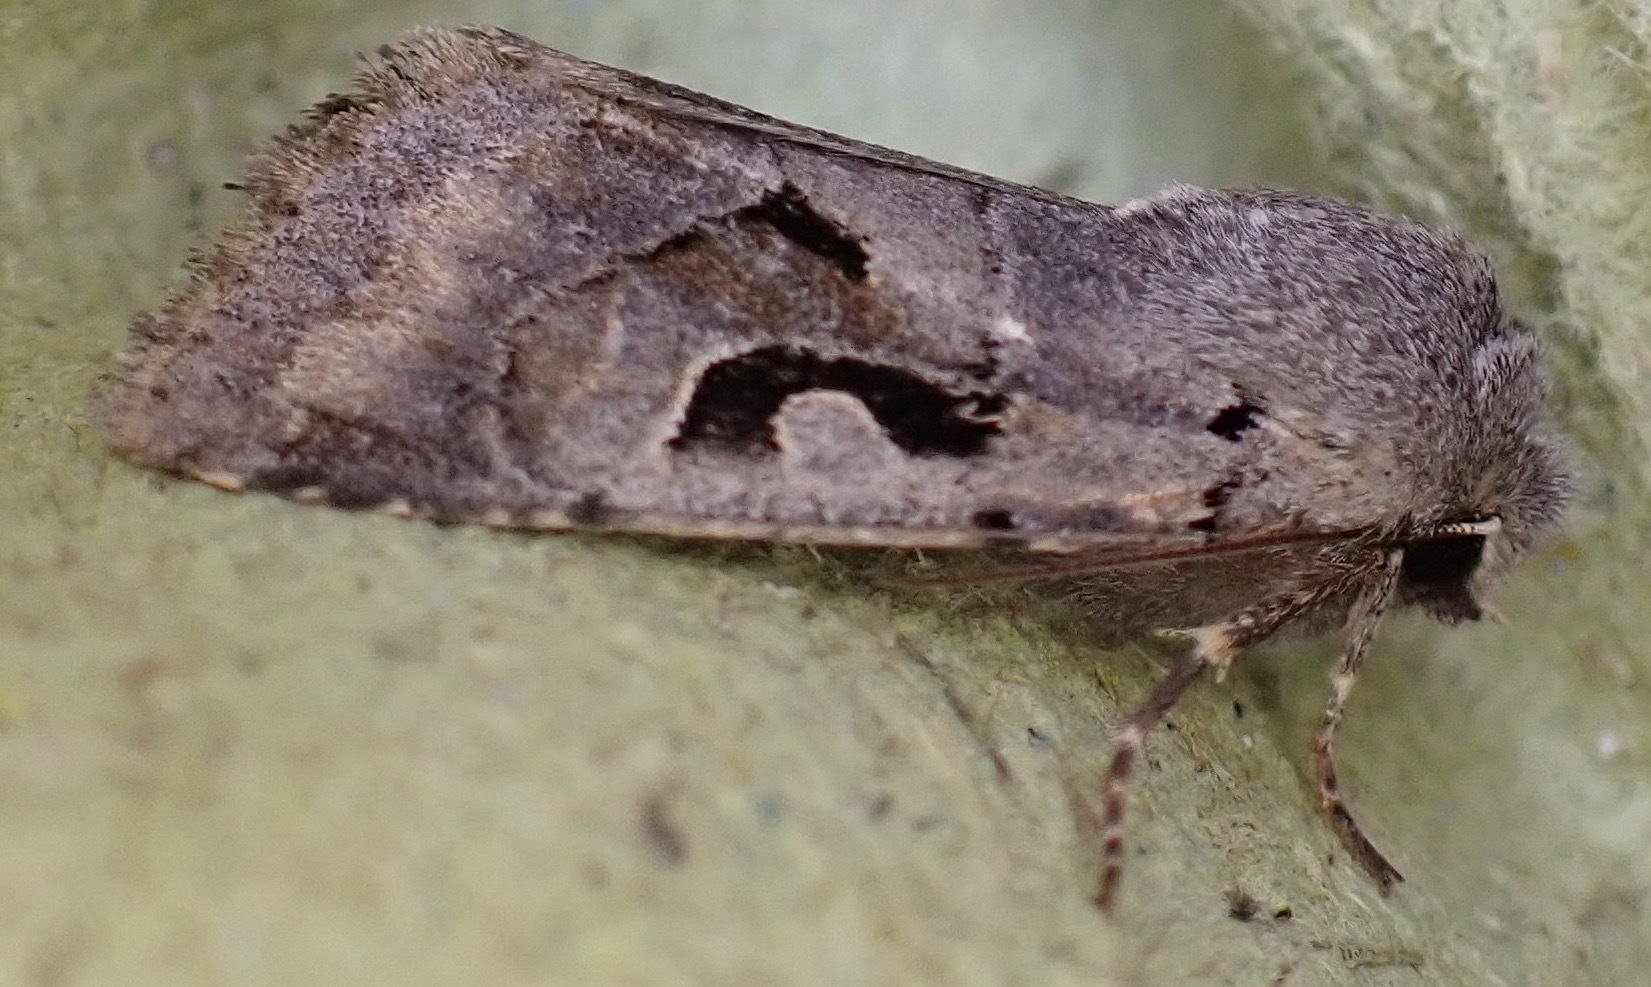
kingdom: Animalia
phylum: Arthropoda
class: Insecta
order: Lepidoptera
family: Noctuidae
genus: Orthosia
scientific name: Orthosia gothica
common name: Hebrew character
